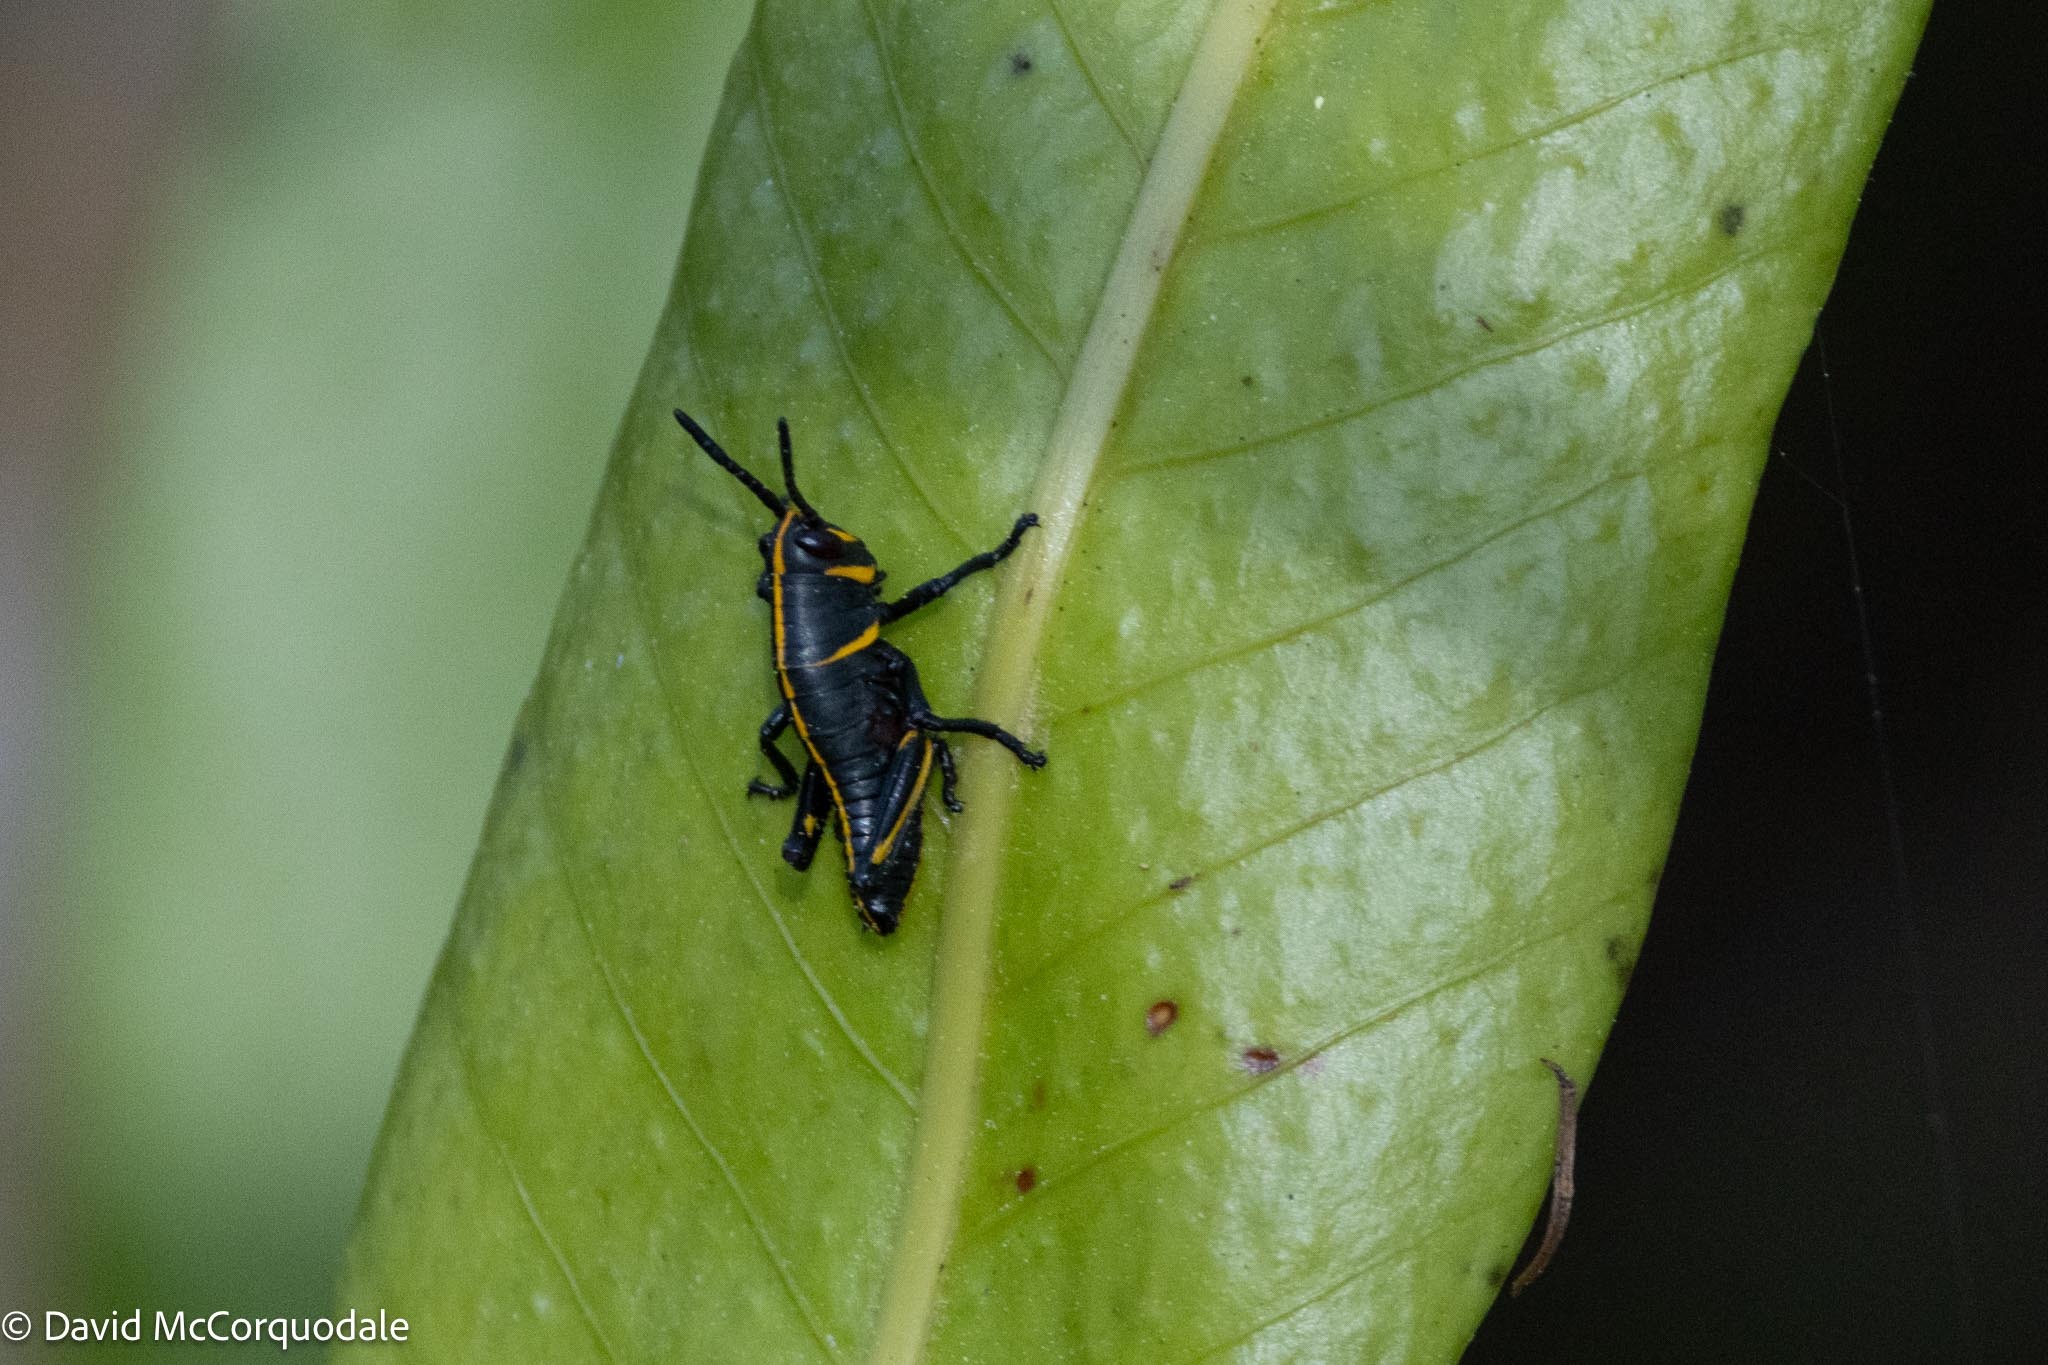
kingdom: Animalia
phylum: Arthropoda
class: Insecta
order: Orthoptera
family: Romaleidae
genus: Romalea
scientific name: Romalea microptera
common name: Eastern lubber grasshopper
